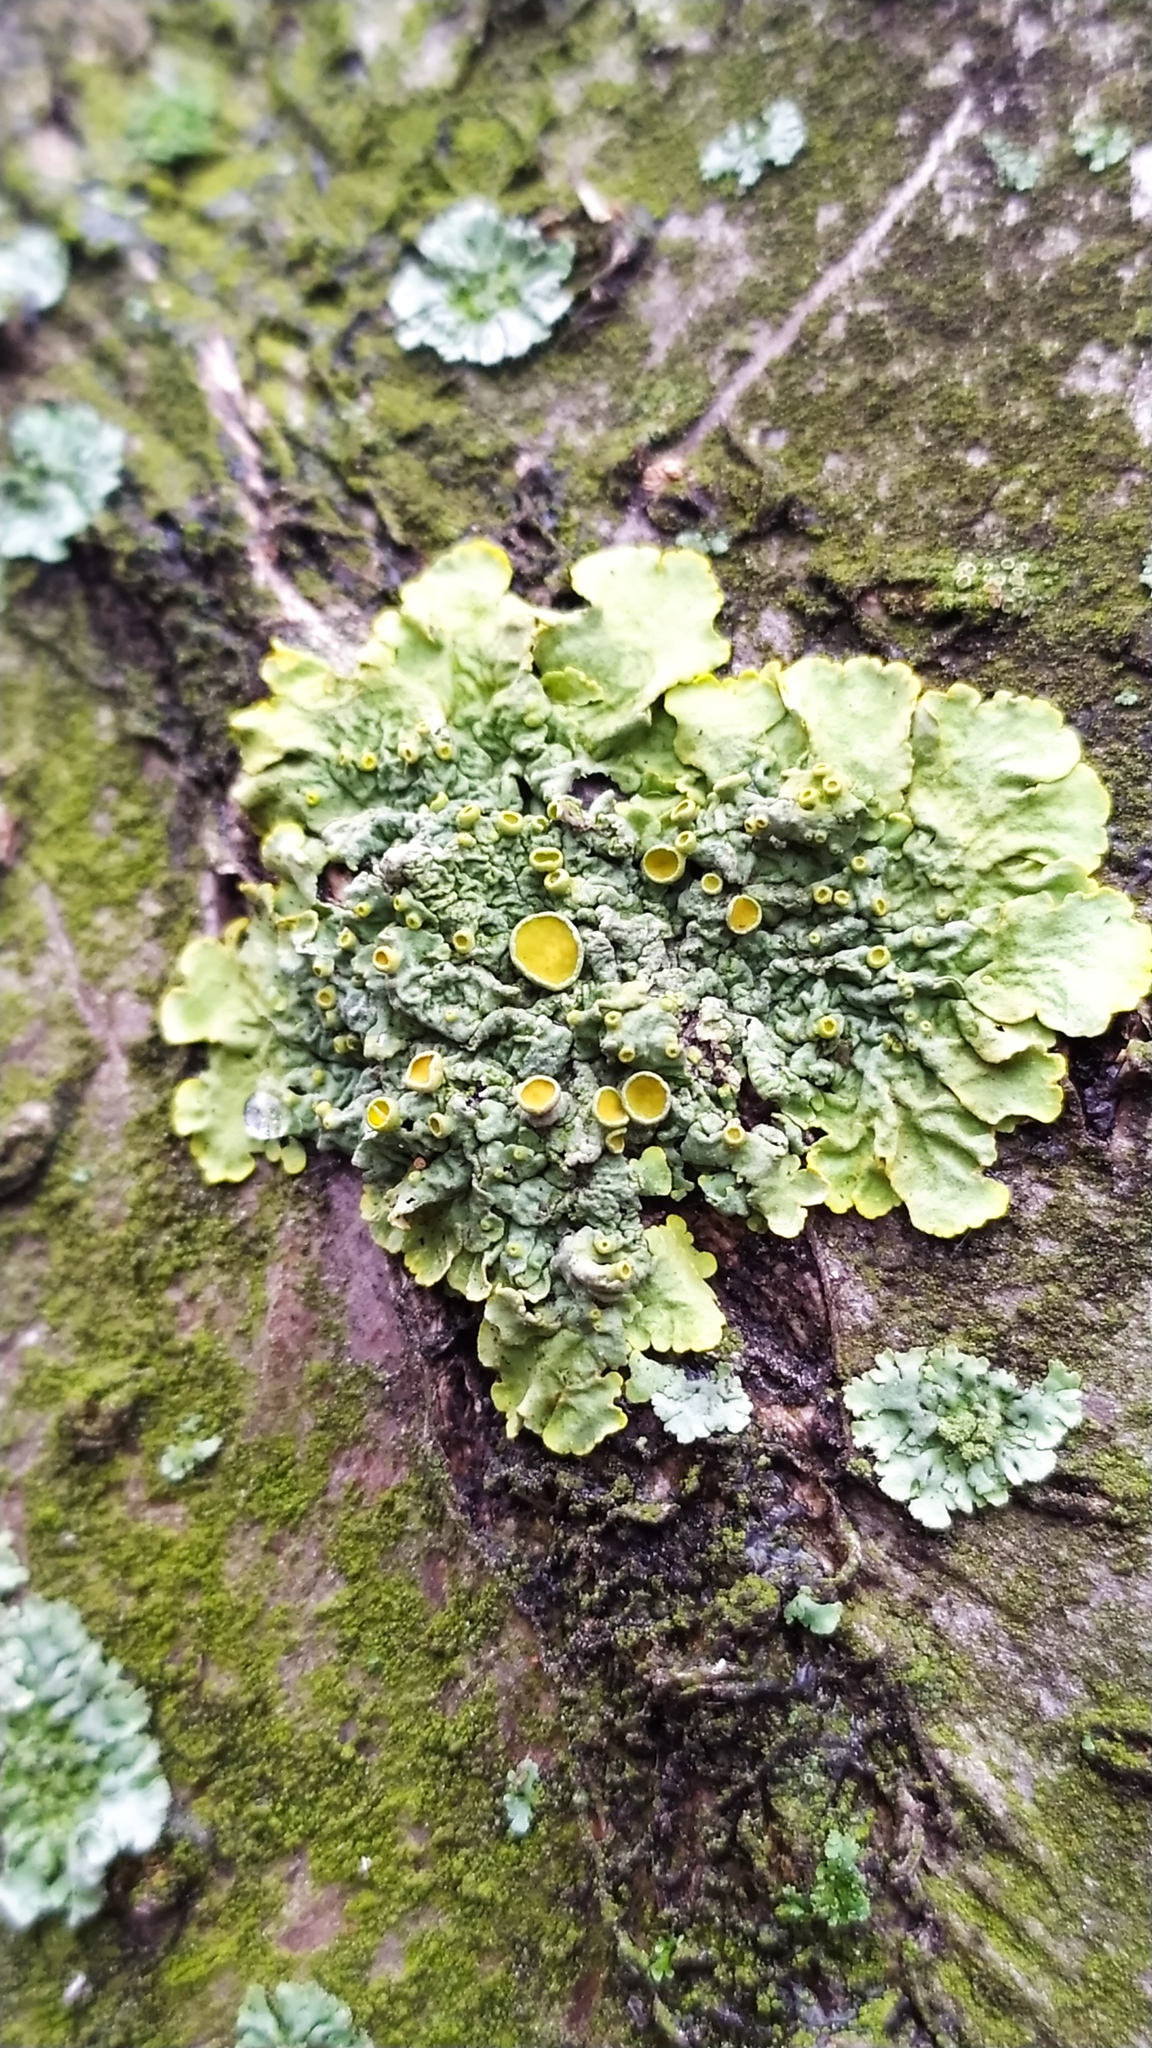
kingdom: Fungi
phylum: Ascomycota
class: Lecanoromycetes
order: Teloschistales
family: Teloschistaceae
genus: Xanthoria
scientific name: Xanthoria parietina
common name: Common orange lichen
